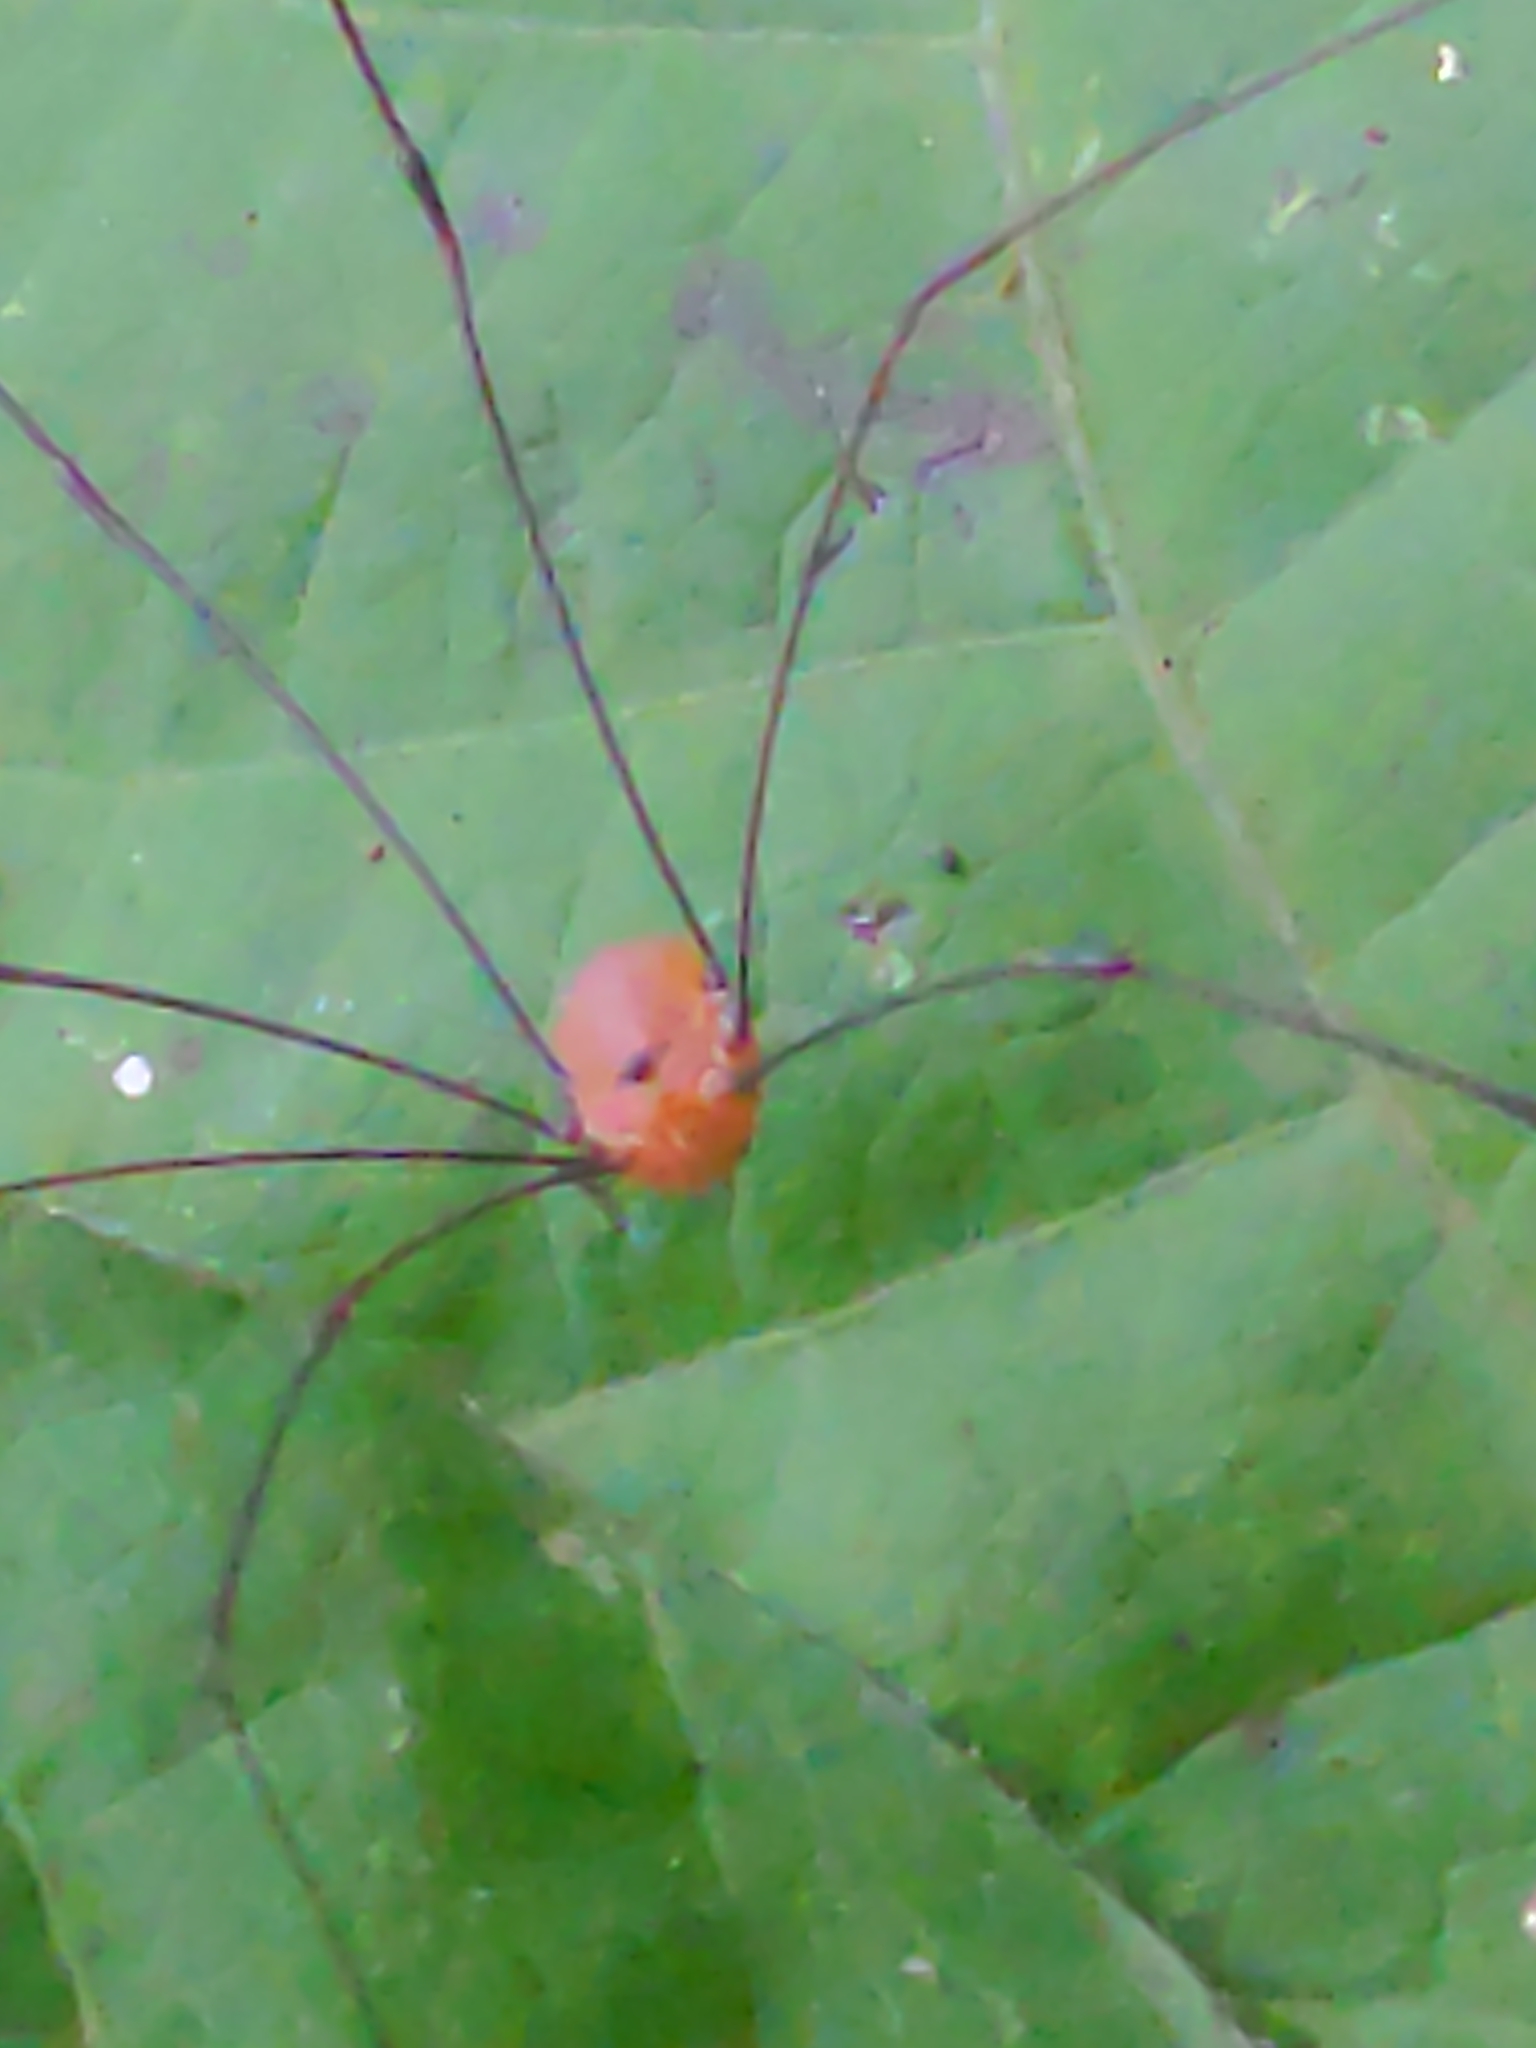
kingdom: Animalia
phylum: Arthropoda
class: Arachnida
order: Opiliones
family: Sclerosomatidae
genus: Leiobunum
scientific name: Leiobunum uxorium
